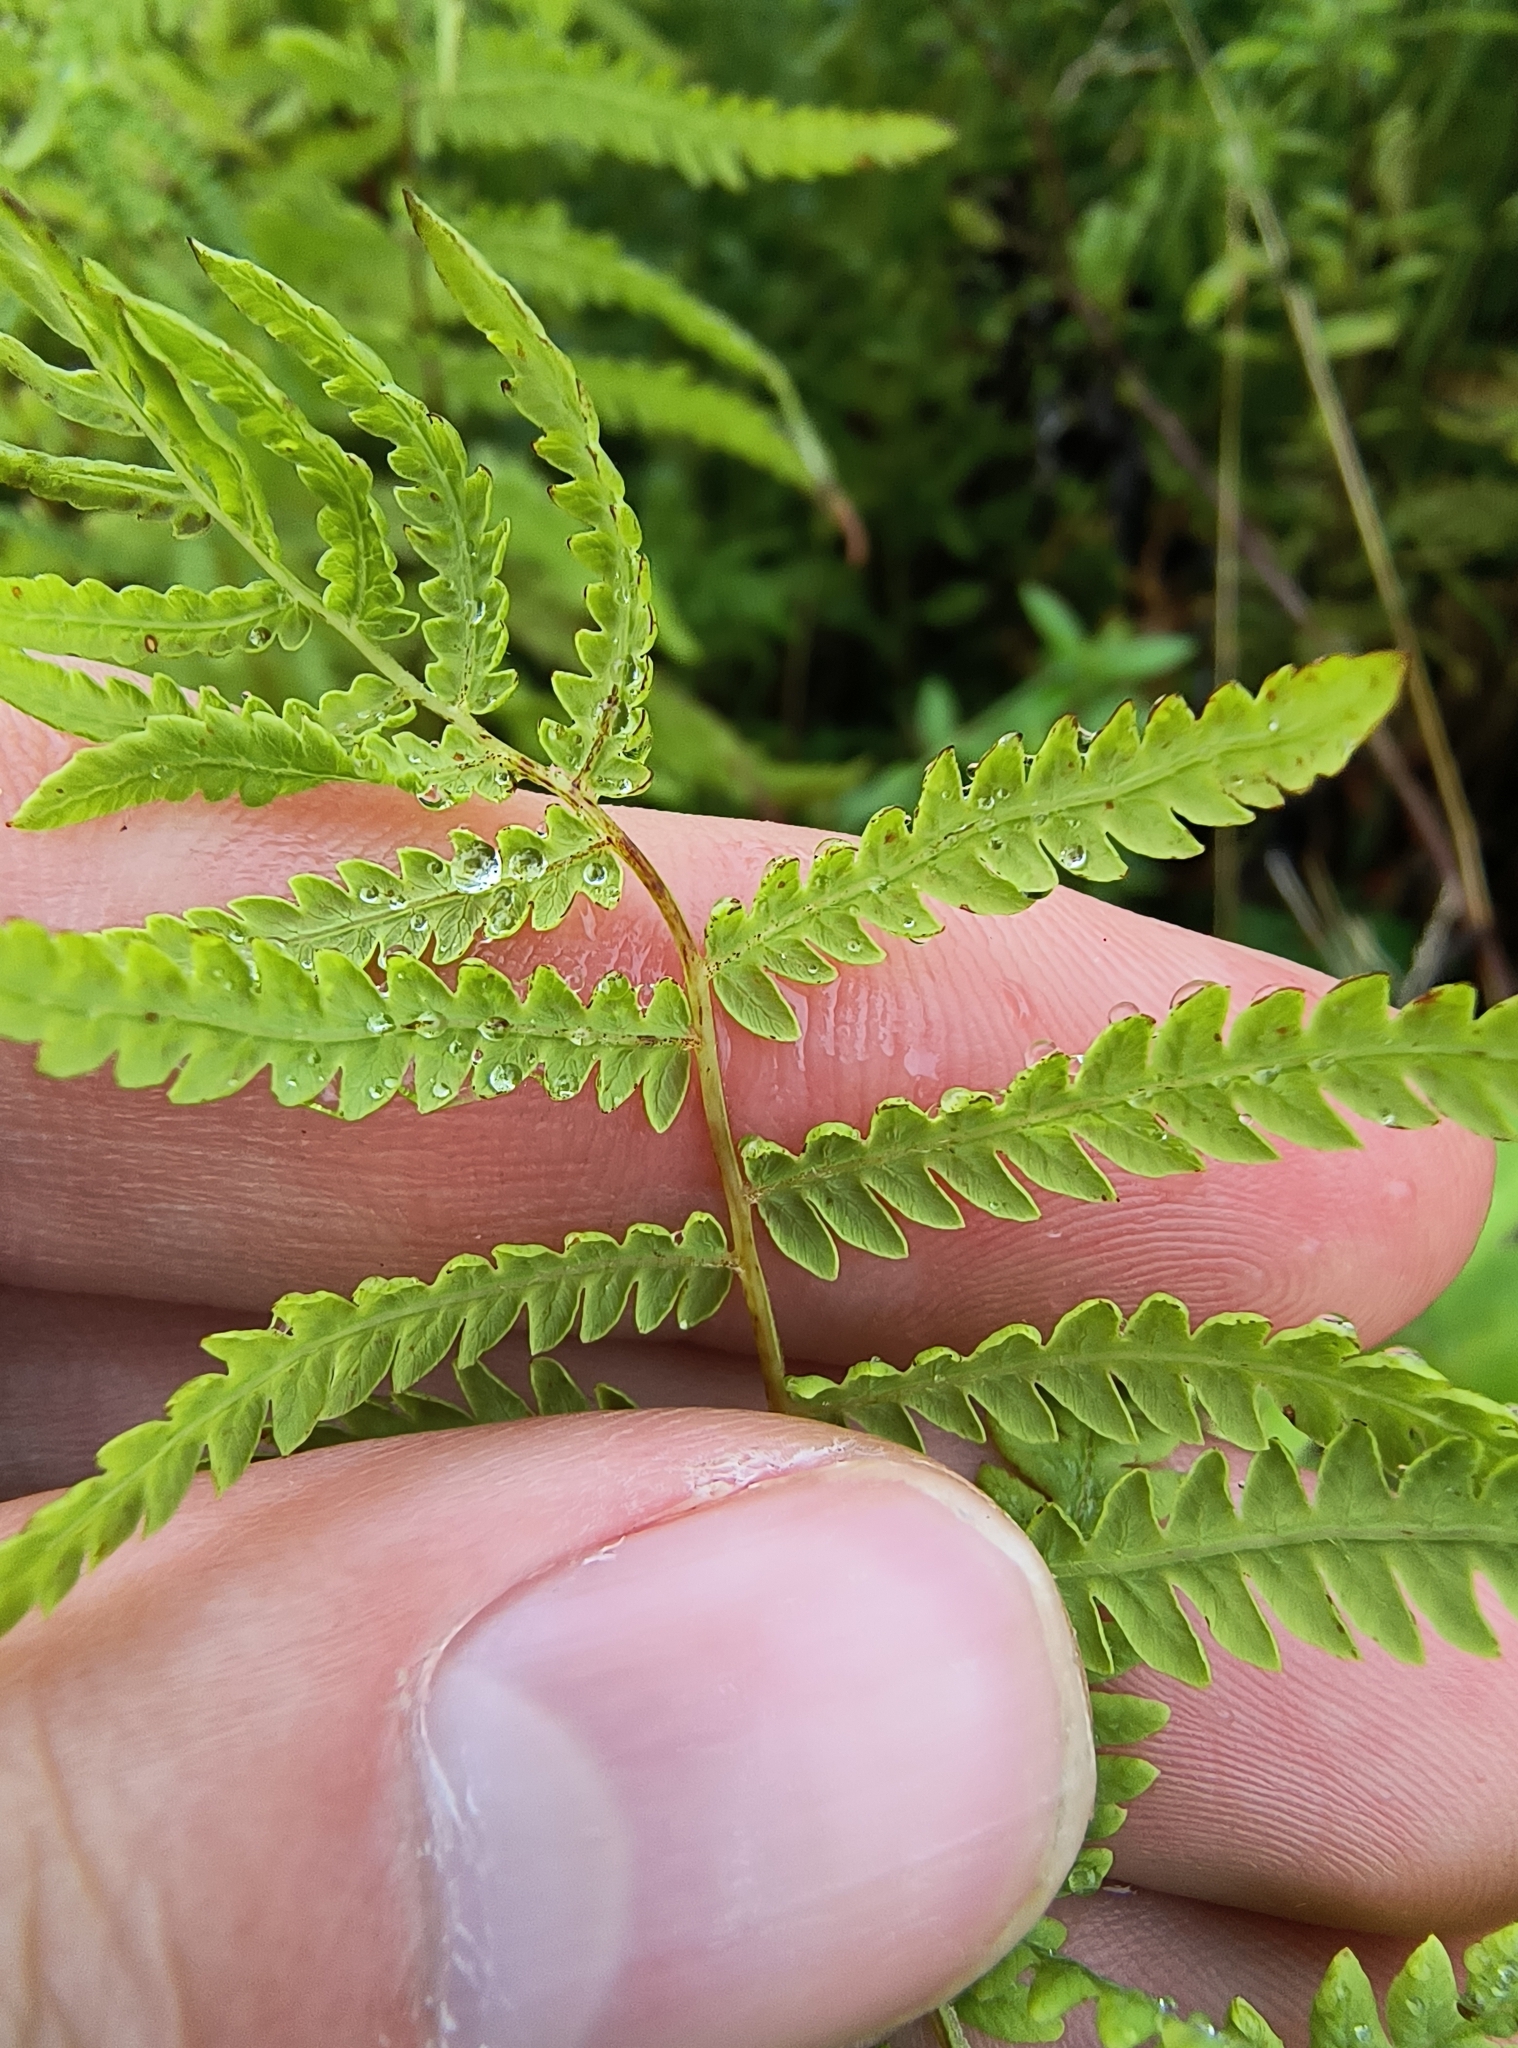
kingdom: Plantae
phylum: Tracheophyta
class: Polypodiopsida
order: Polypodiales
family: Thelypteridaceae
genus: Thelypteris
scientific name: Thelypteris palustris
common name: Marsh fern
